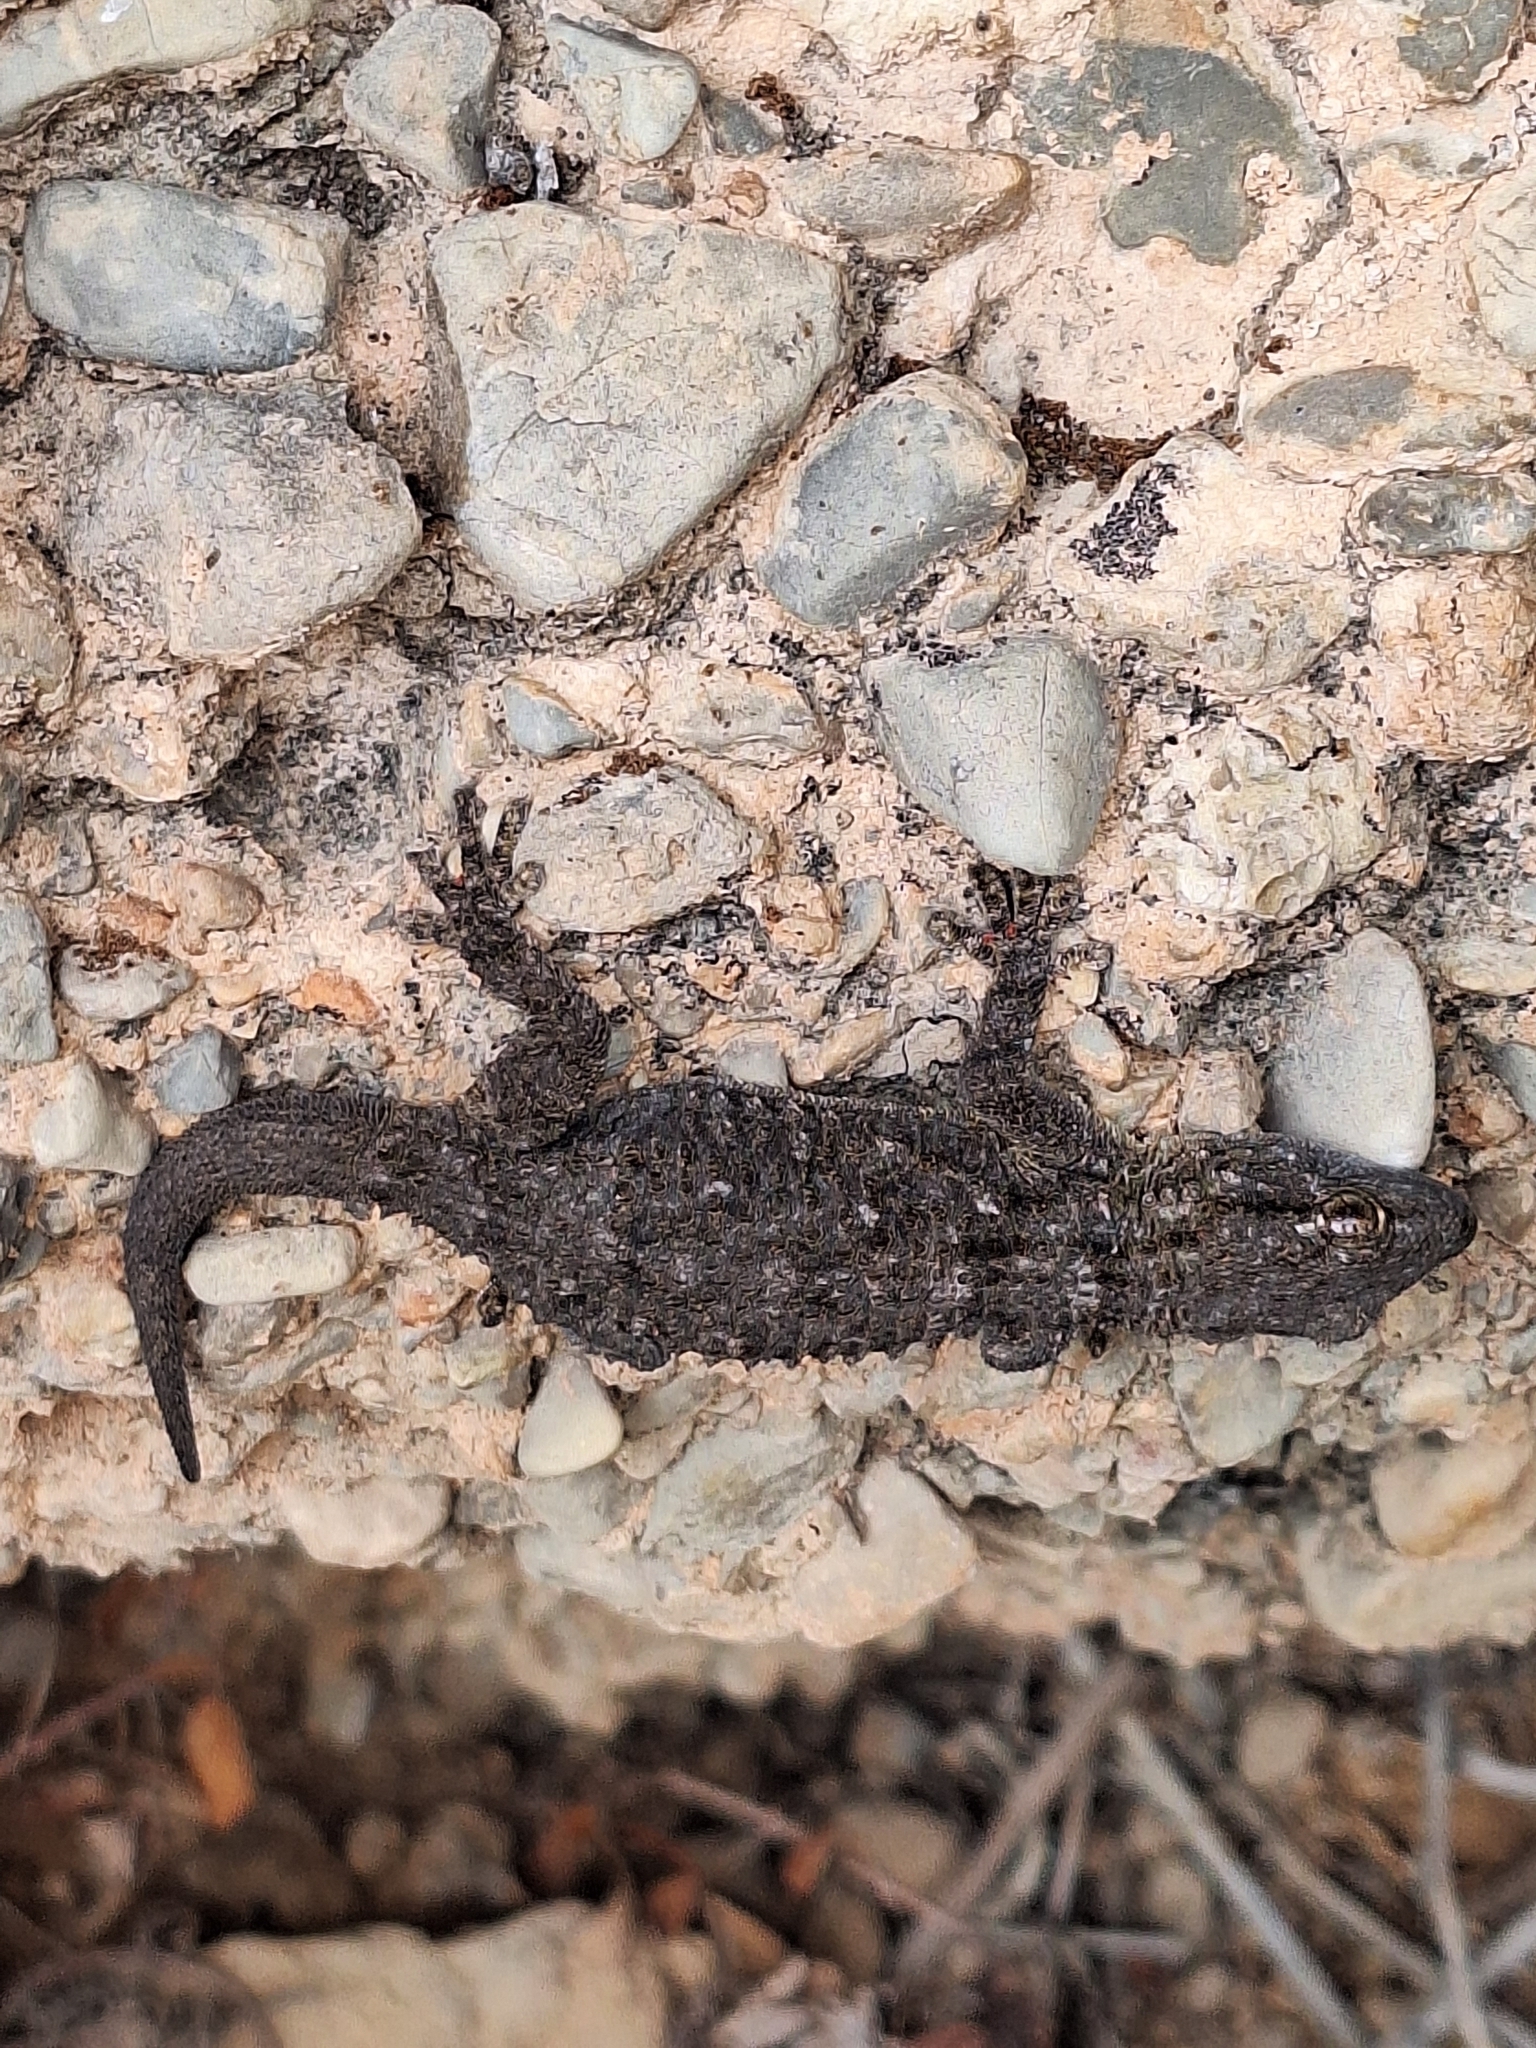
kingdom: Animalia
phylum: Chordata
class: Squamata
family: Phyllodactylidae
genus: Tarentola
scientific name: Tarentola mauritanica
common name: Moorish gecko
